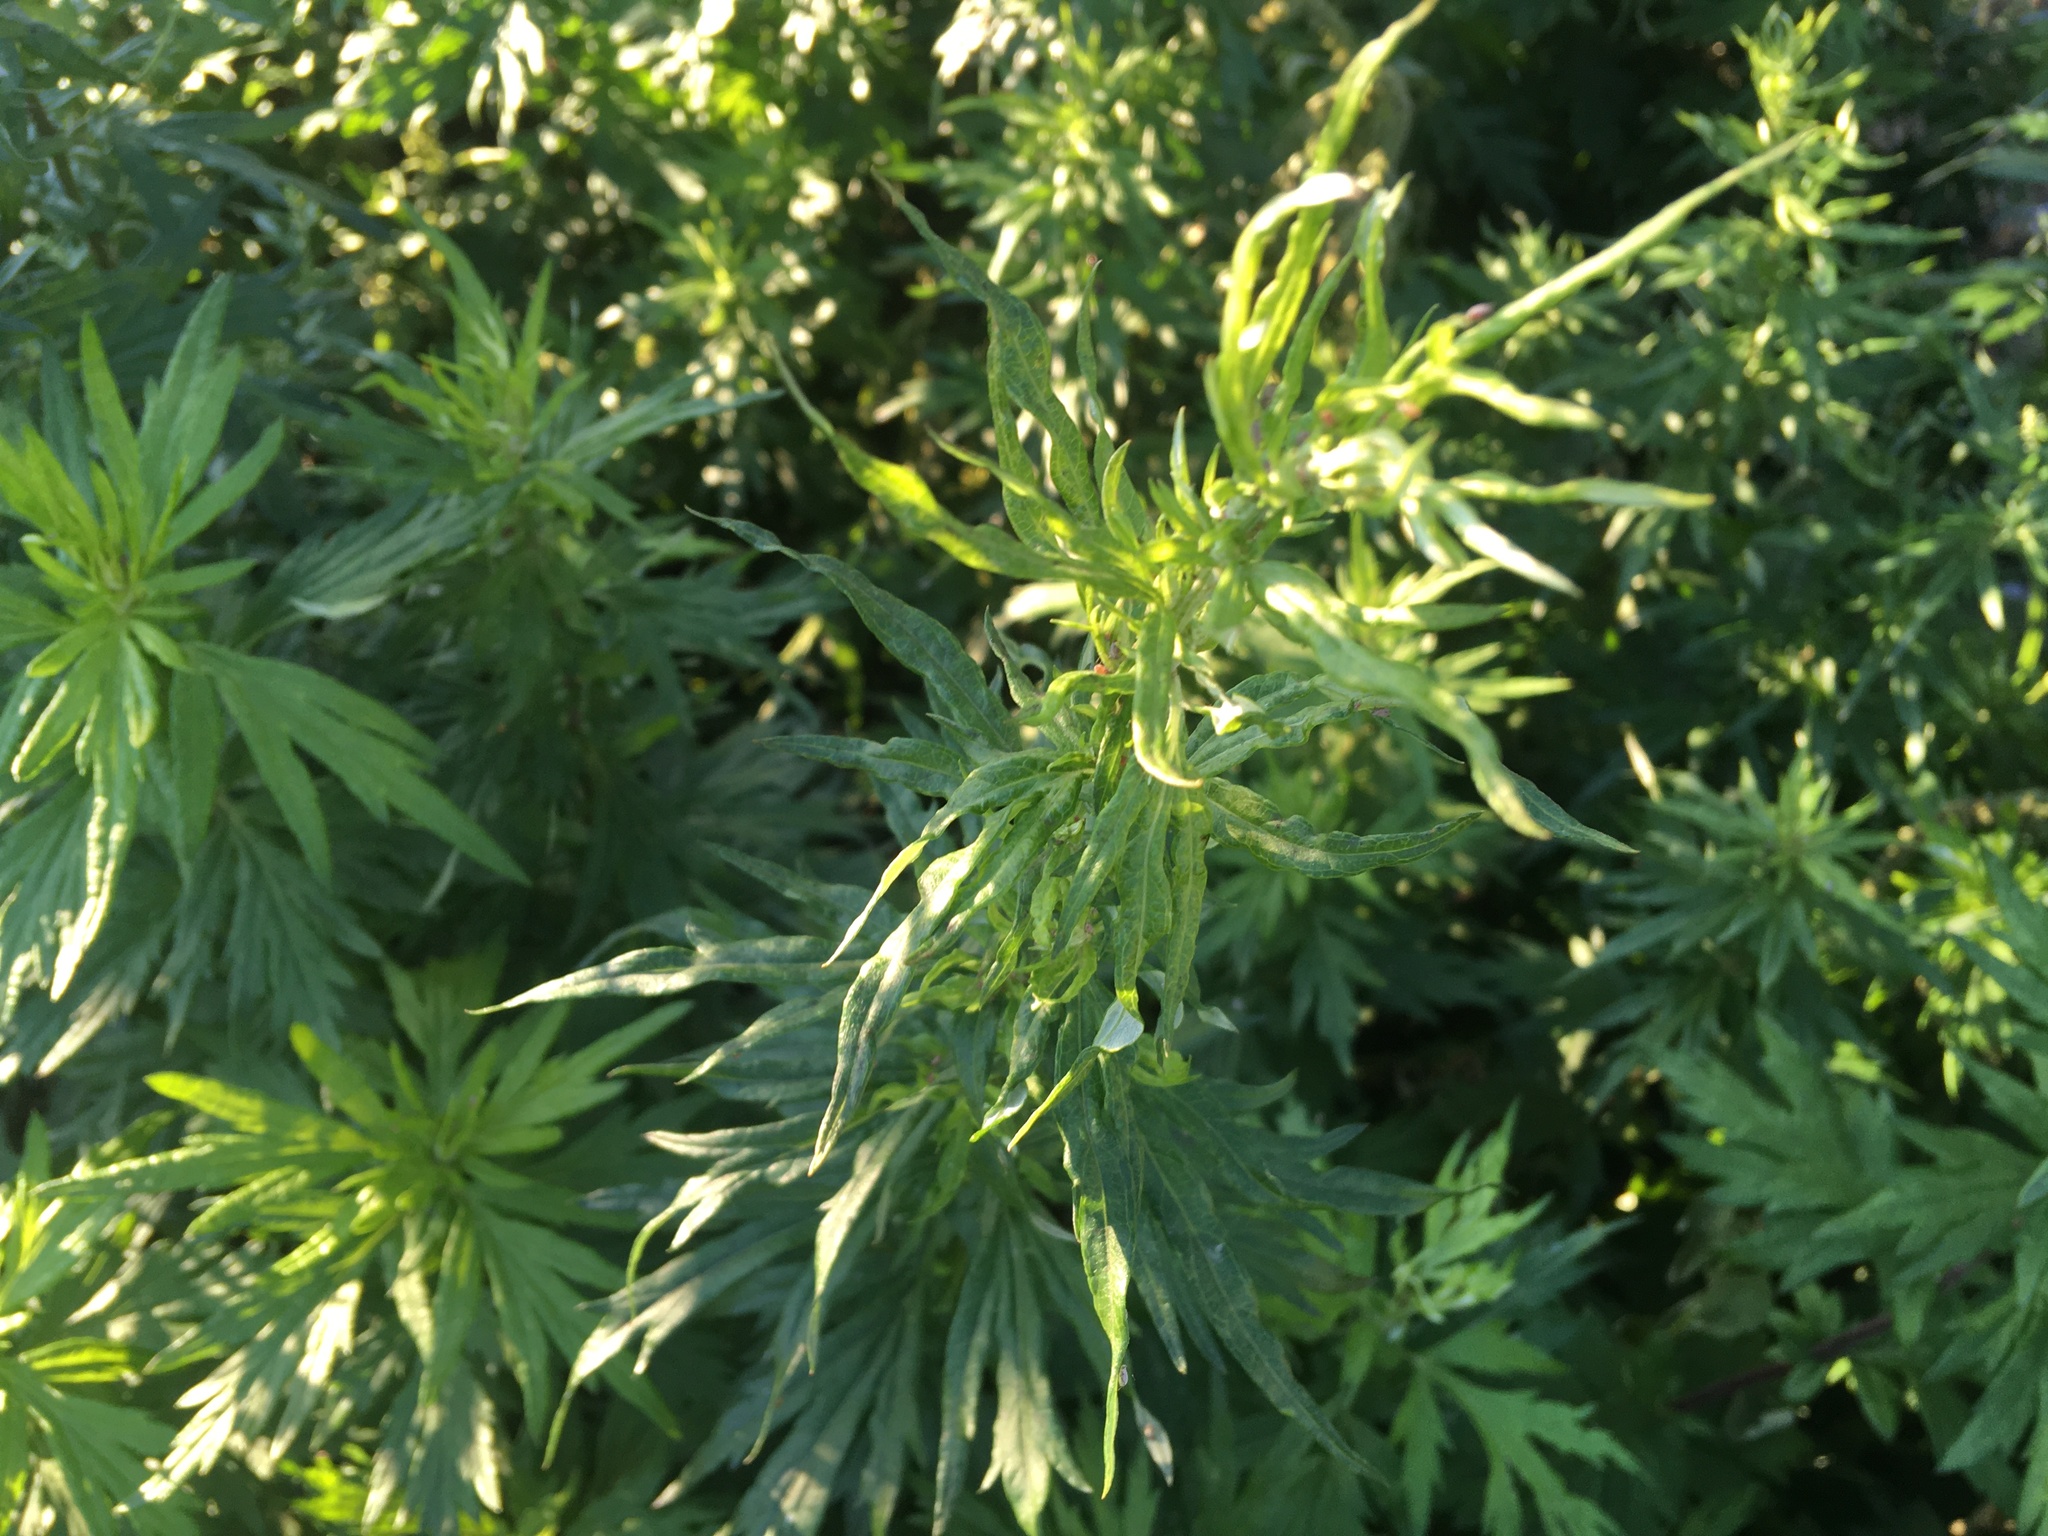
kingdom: Plantae
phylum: Tracheophyta
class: Magnoliopsida
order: Asterales
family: Asteraceae
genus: Artemisia
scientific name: Artemisia vulgaris
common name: Mugwort
